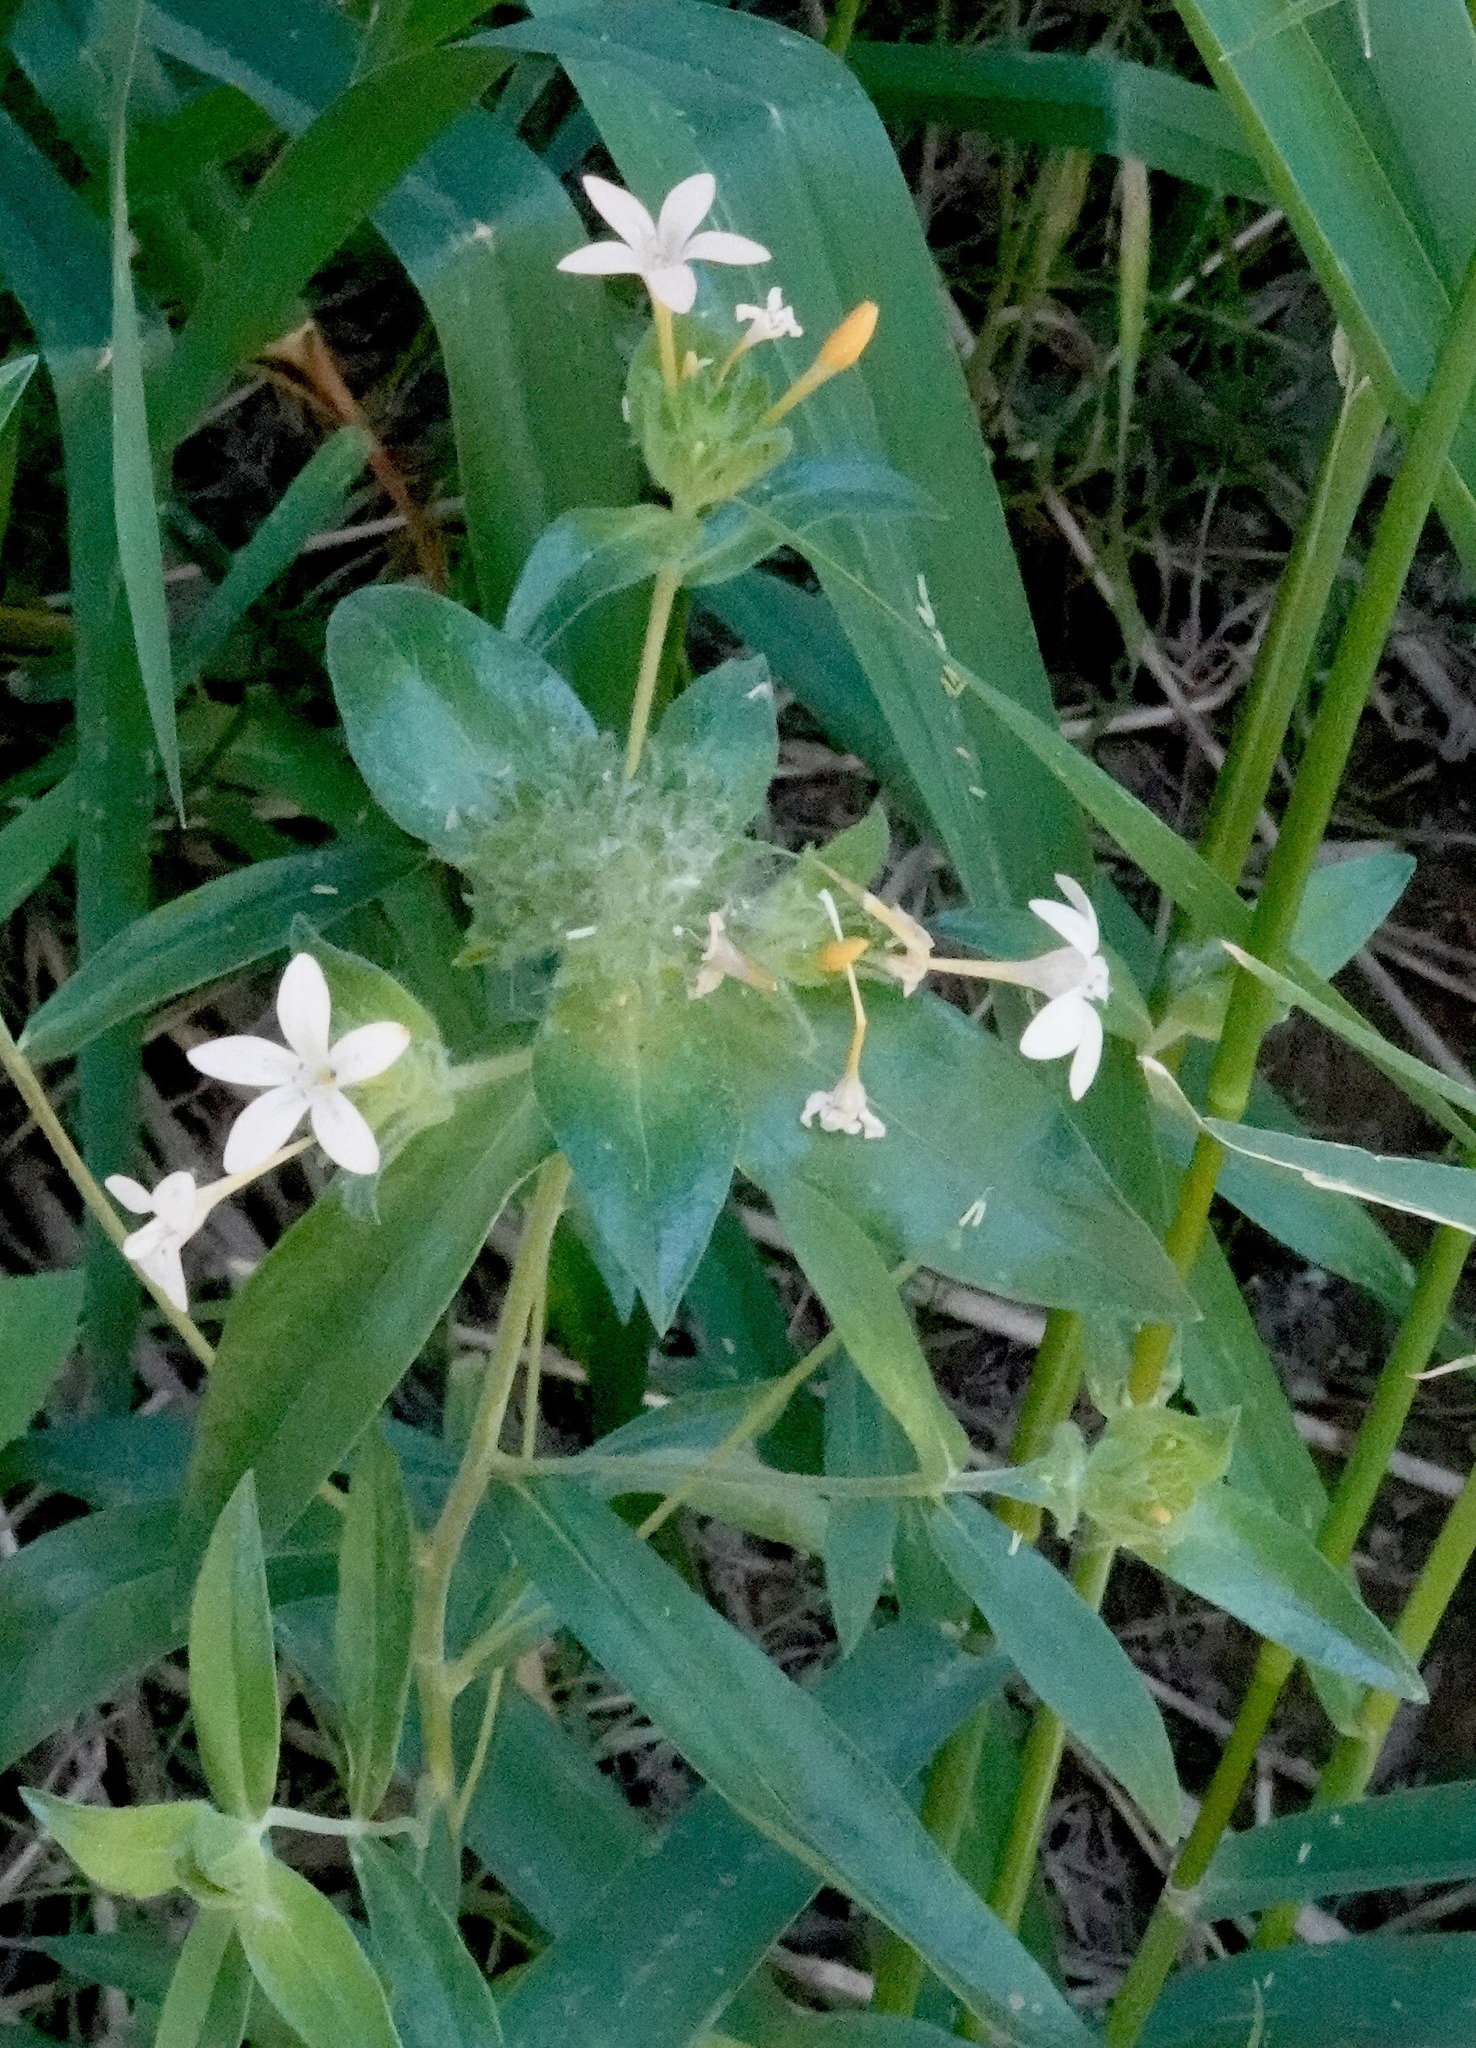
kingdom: Plantae
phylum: Tracheophyta
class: Magnoliopsida
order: Ericales
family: Polemoniaceae
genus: Collomia
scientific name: Collomia grandiflora
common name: California strawflower
